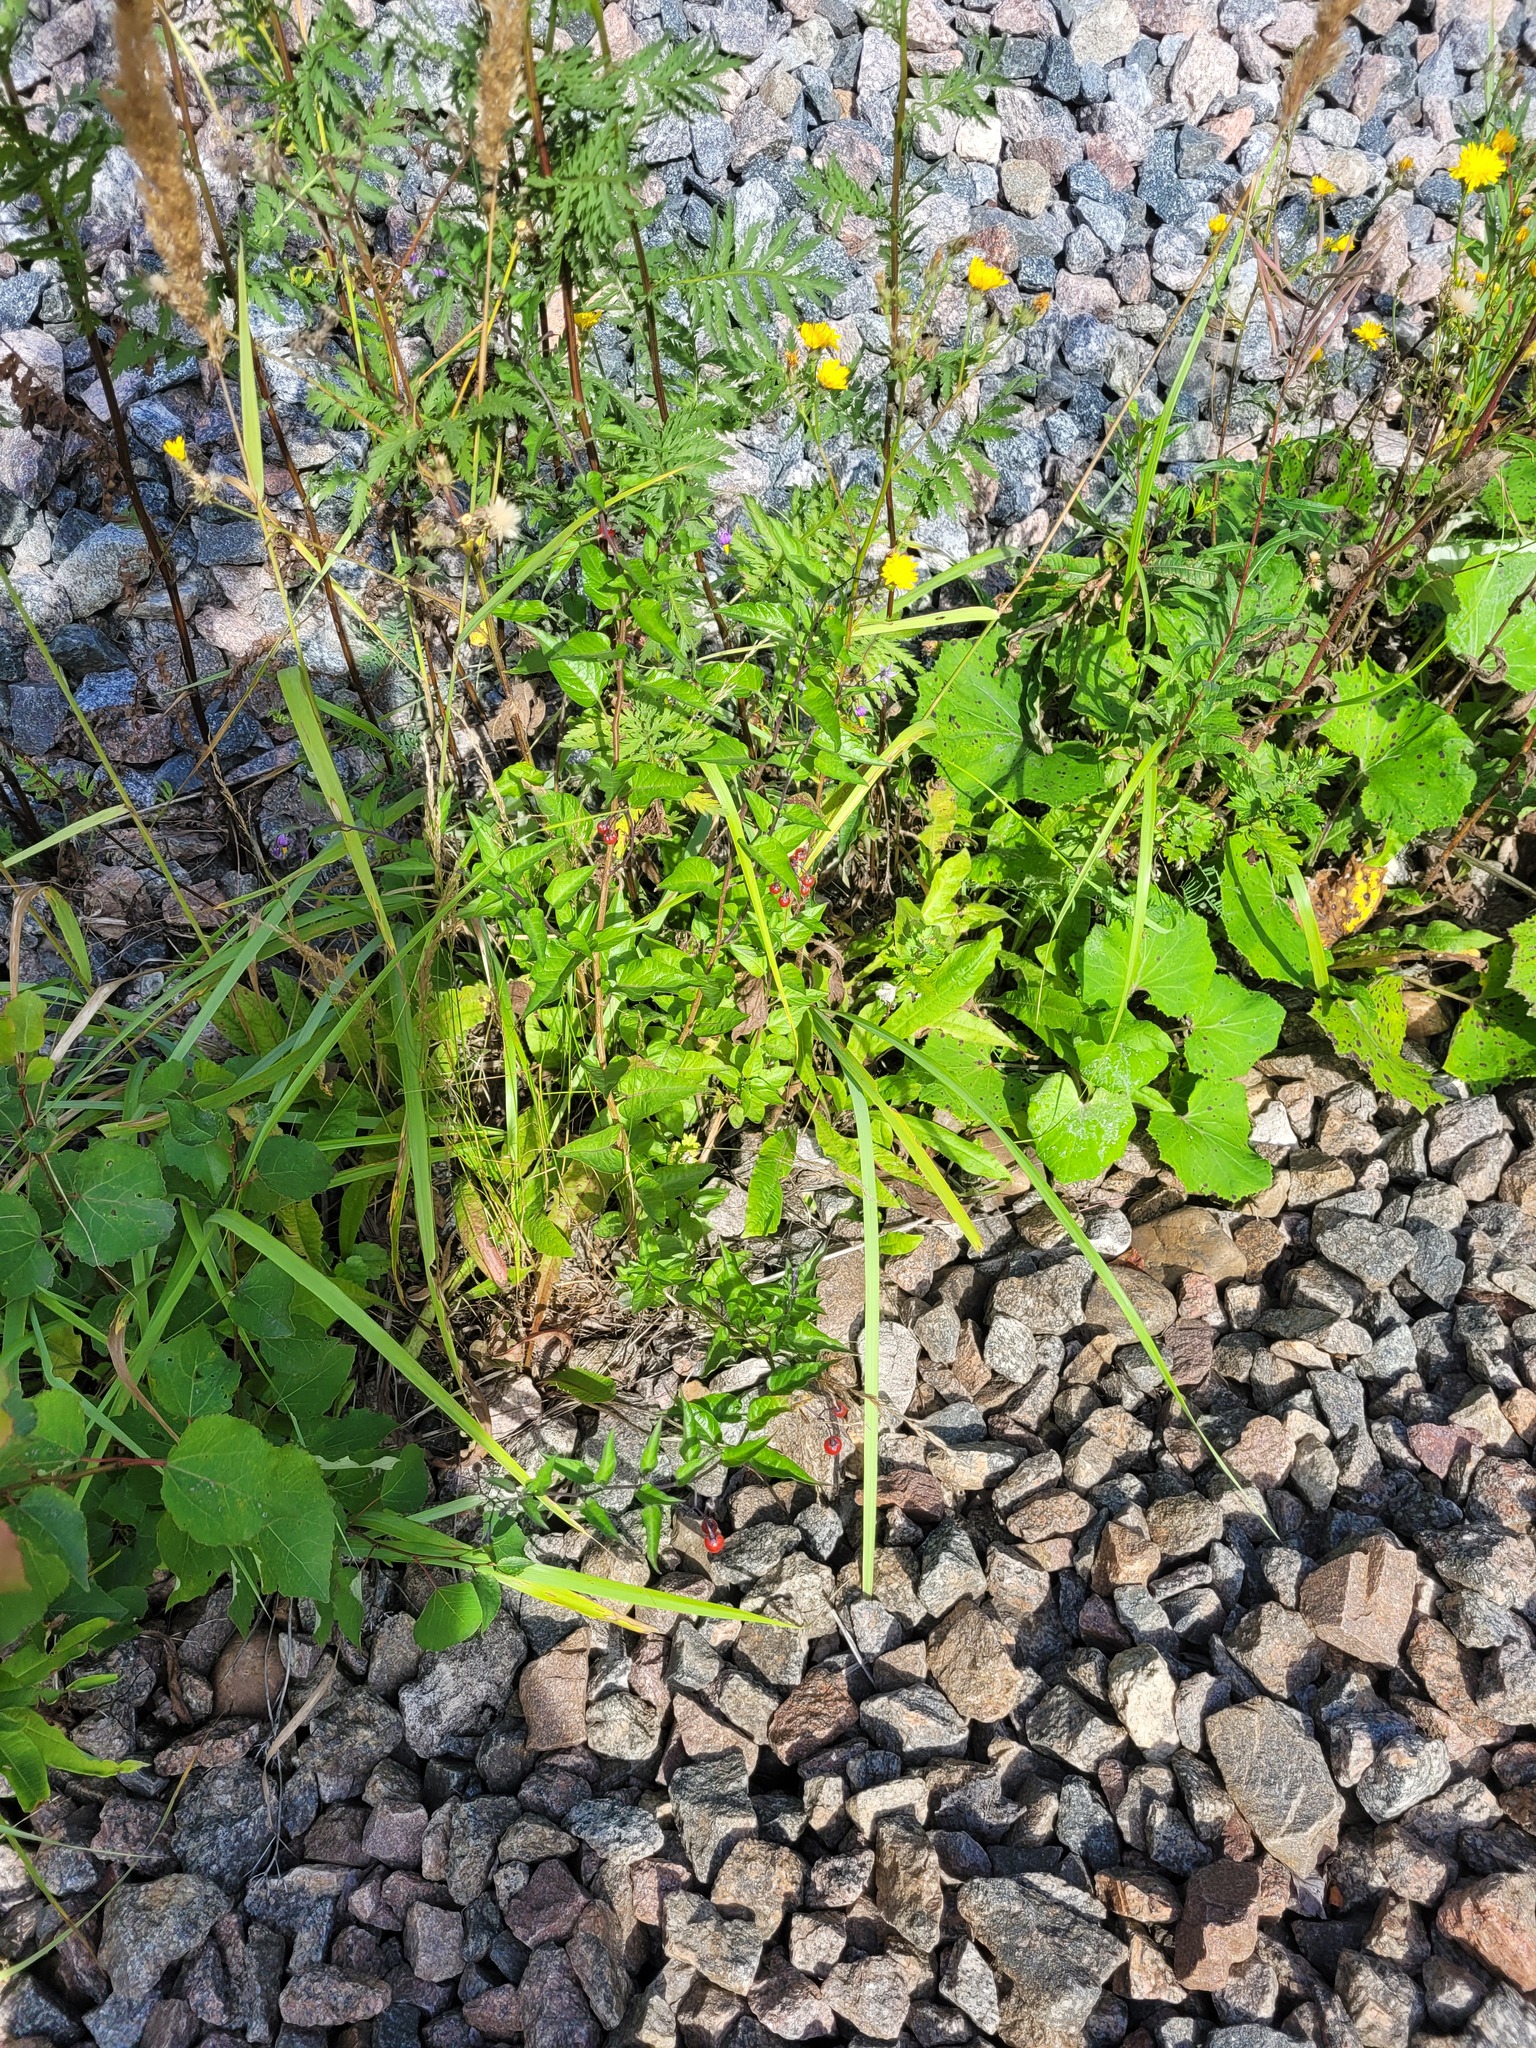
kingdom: Plantae
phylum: Tracheophyta
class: Magnoliopsida
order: Solanales
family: Solanaceae
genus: Solanum
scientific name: Solanum dulcamara
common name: Climbing nightshade
